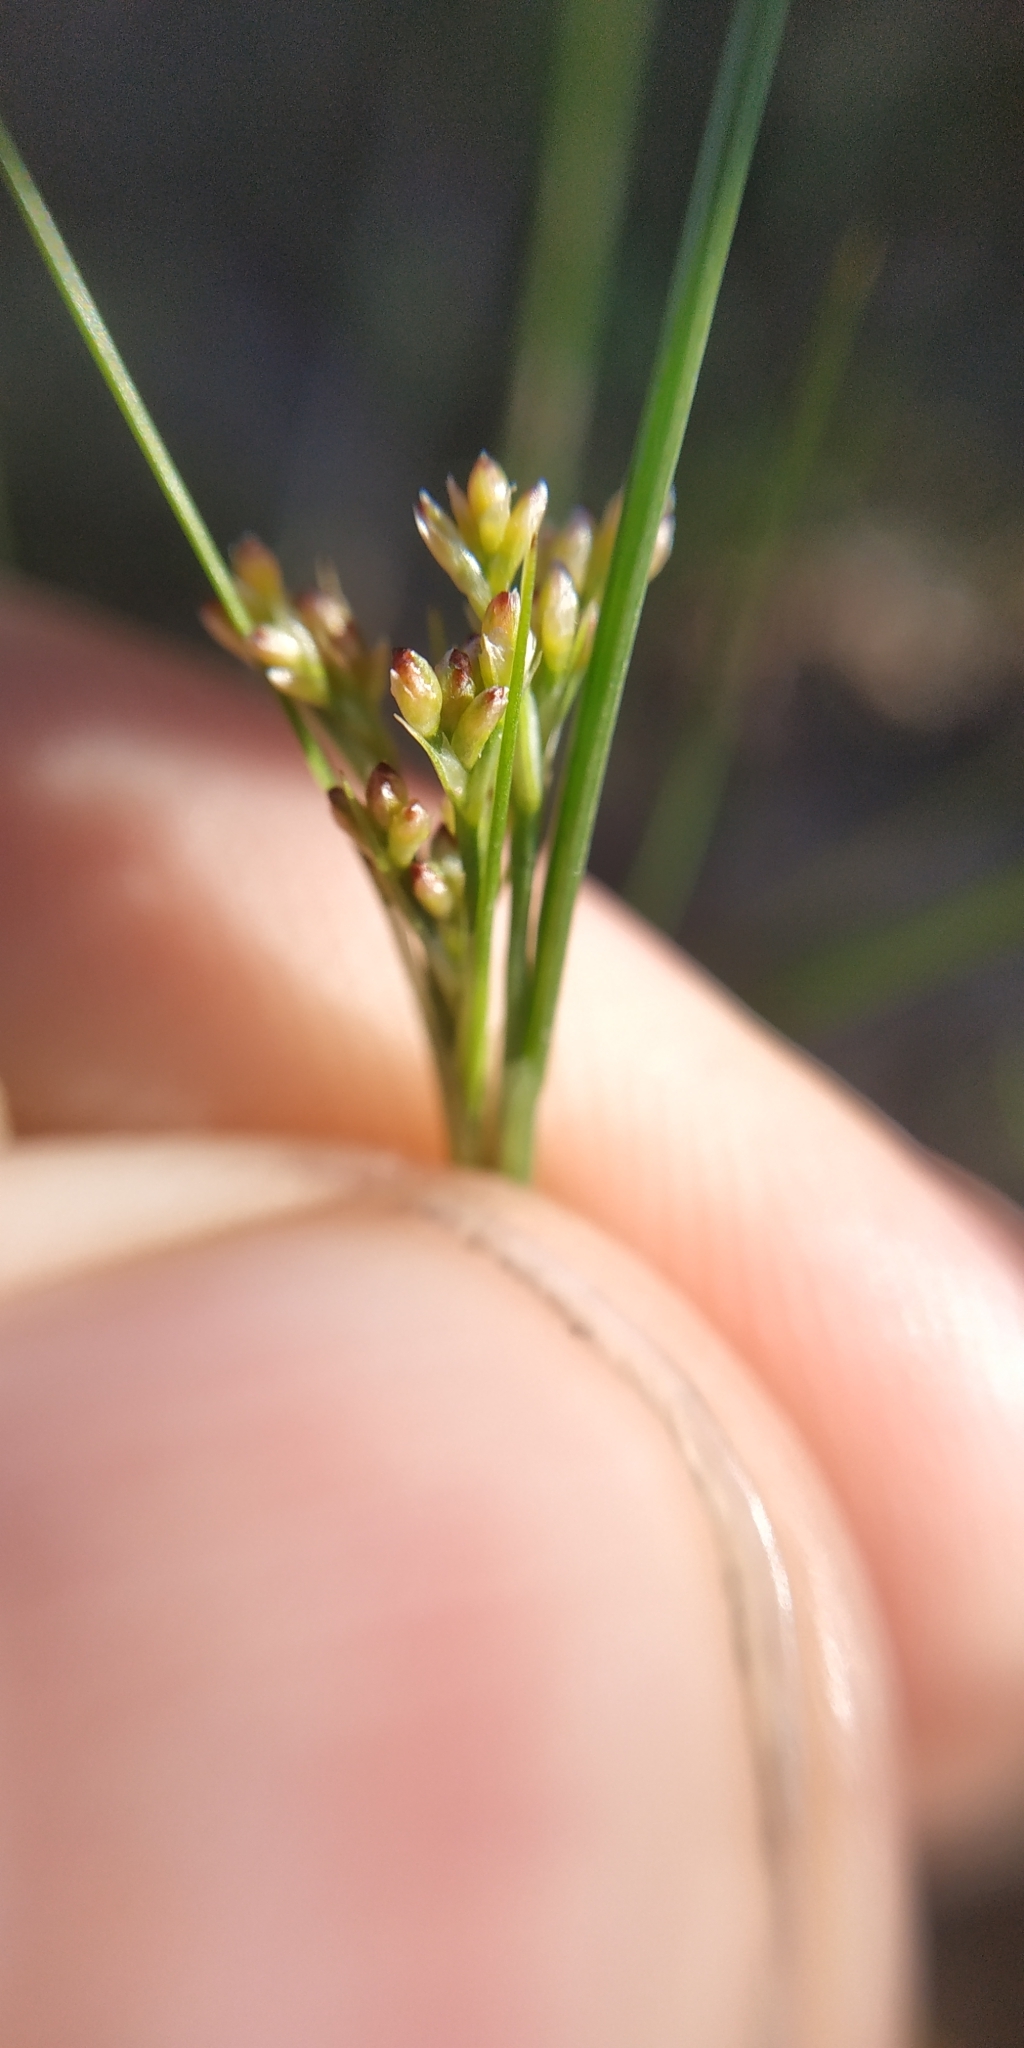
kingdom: Plantae
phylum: Tracheophyta
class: Liliopsida
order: Poales
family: Juncaceae
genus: Juncus
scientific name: Juncus compressus
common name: Round-fruited rush
